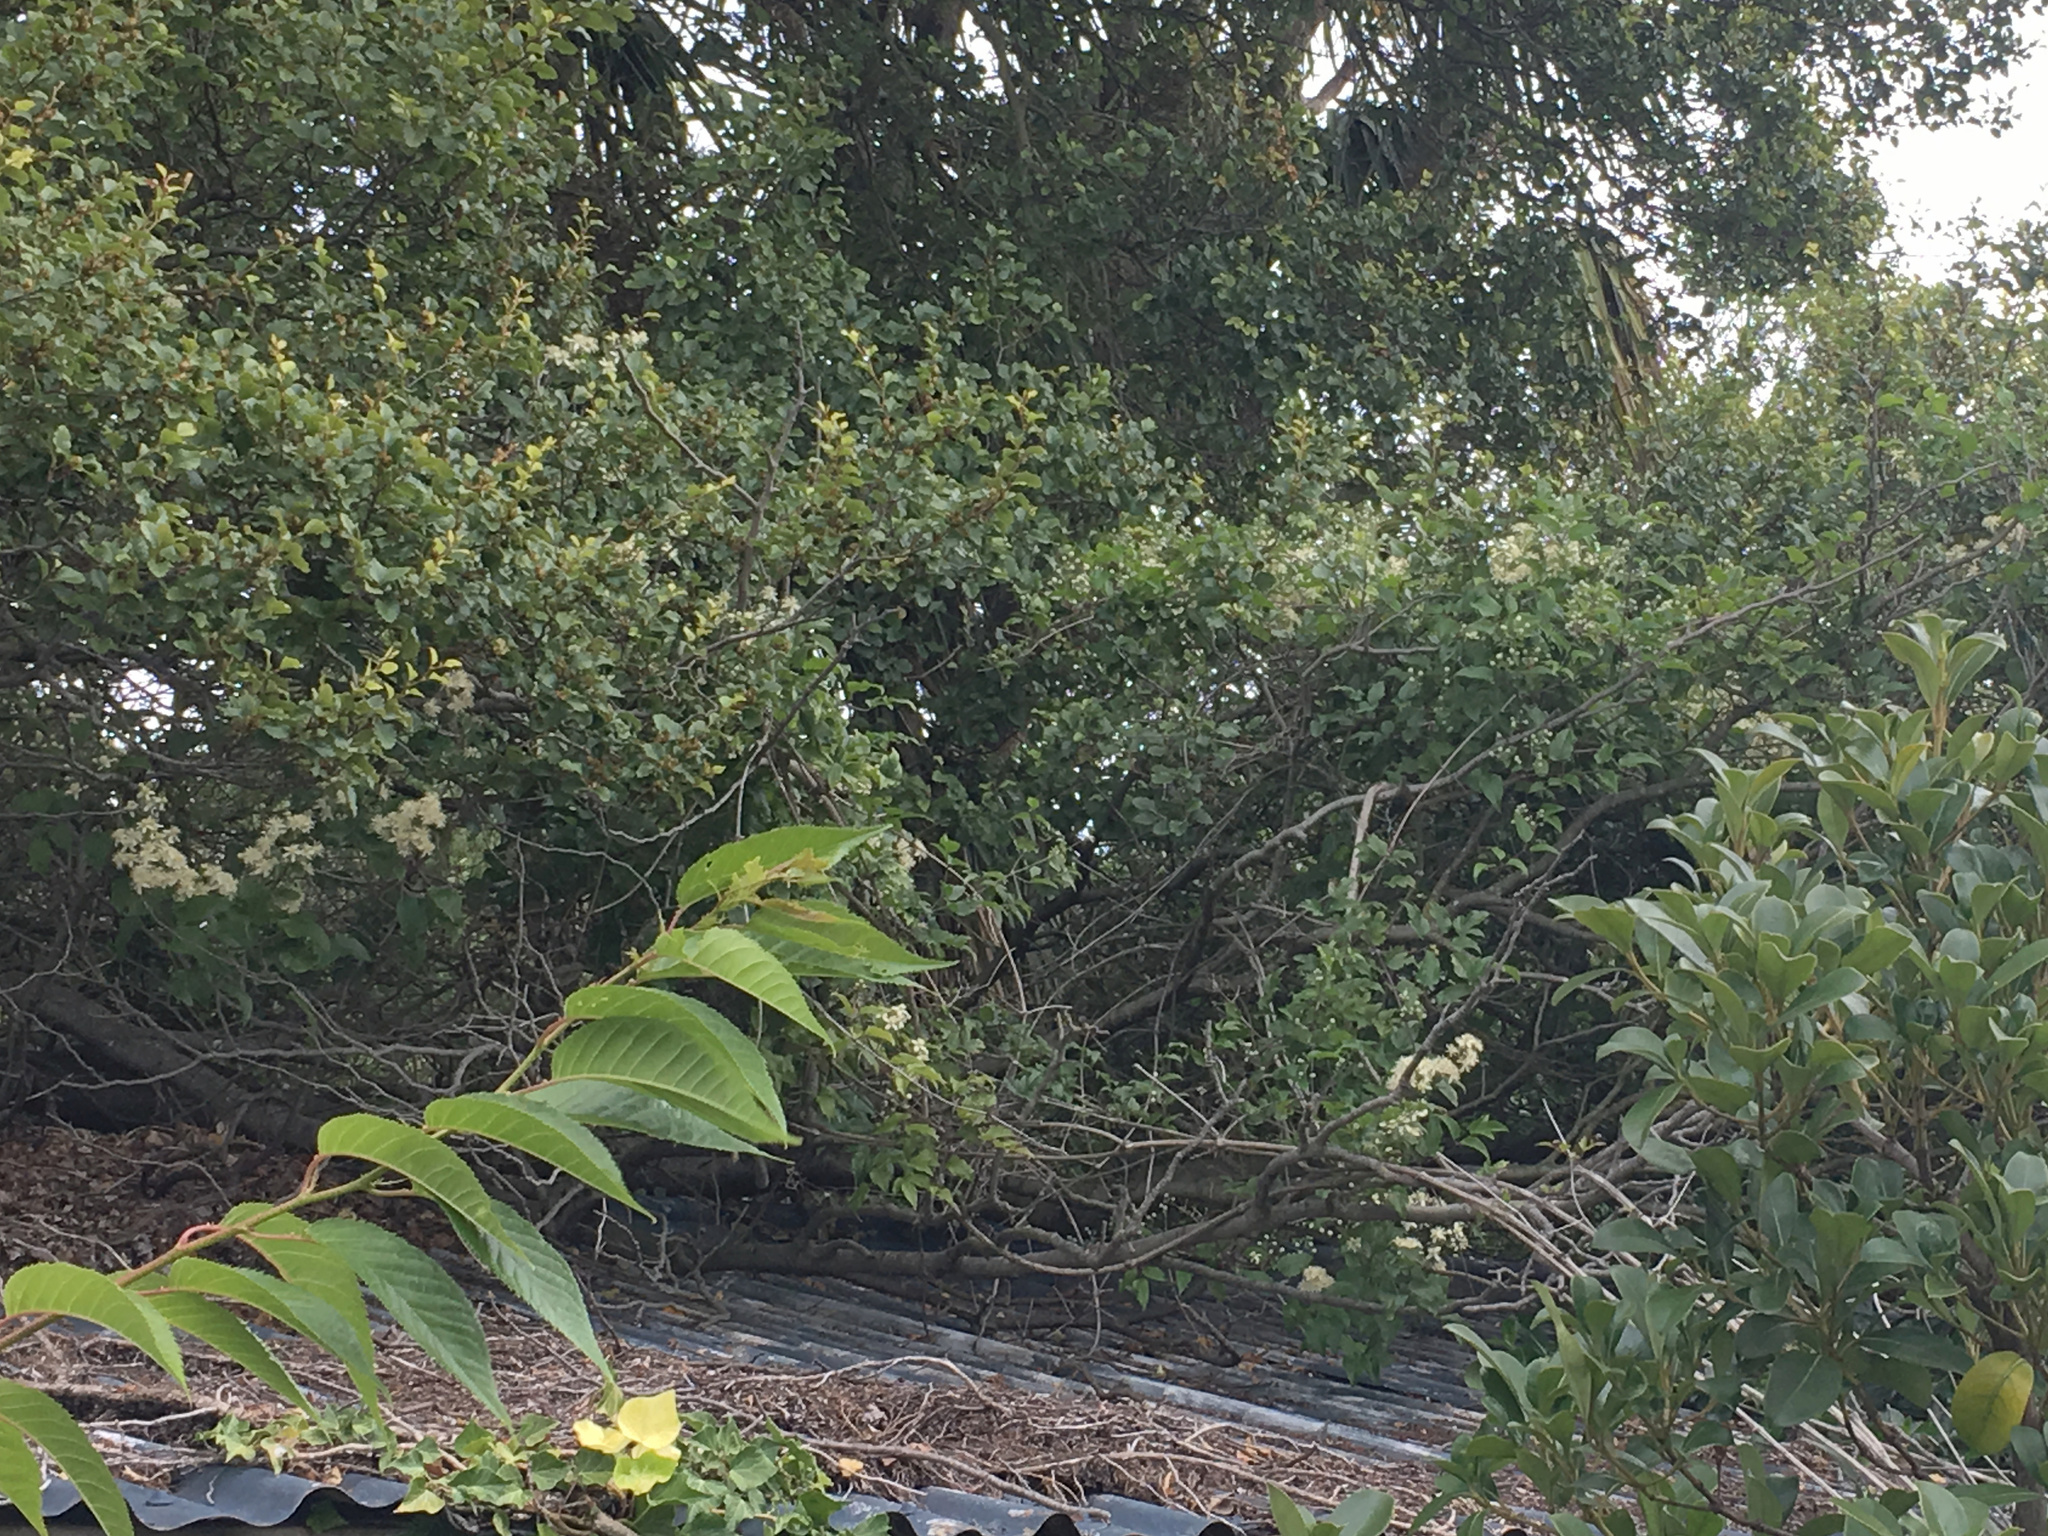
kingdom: Plantae
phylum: Tracheophyta
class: Magnoliopsida
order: Ranunculales
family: Ranunculaceae
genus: Clematis
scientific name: Clematis vitalba
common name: Evergreen clematis
